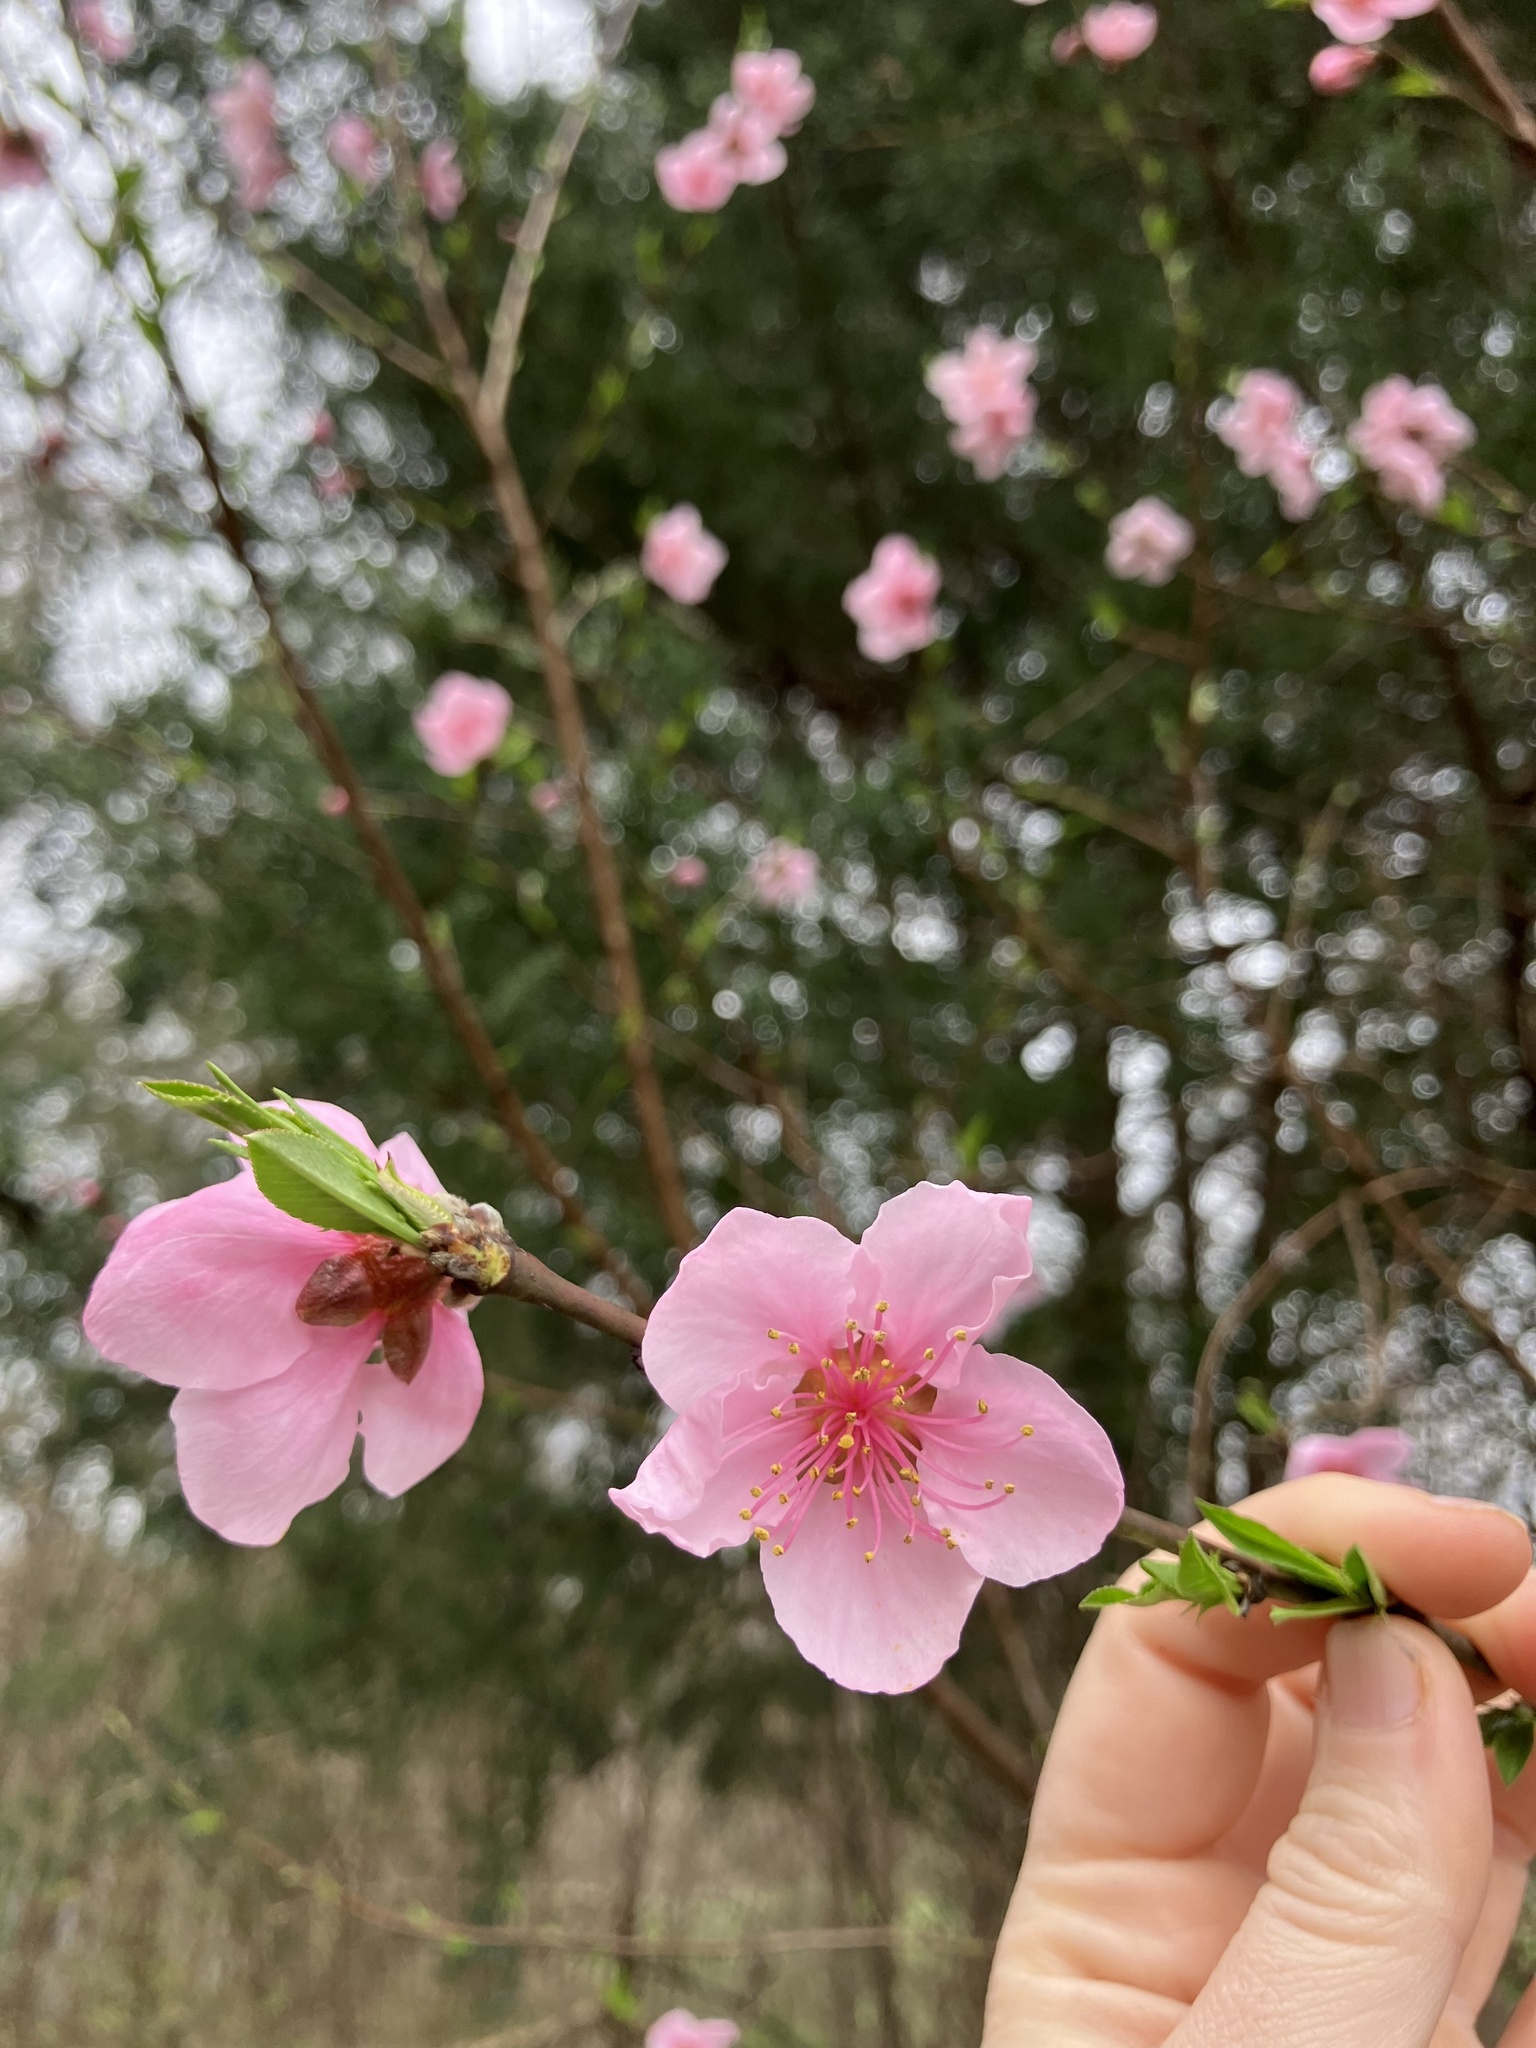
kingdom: Plantae
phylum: Tracheophyta
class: Magnoliopsida
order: Rosales
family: Rosaceae
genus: Prunus
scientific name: Prunus persica
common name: Peach
